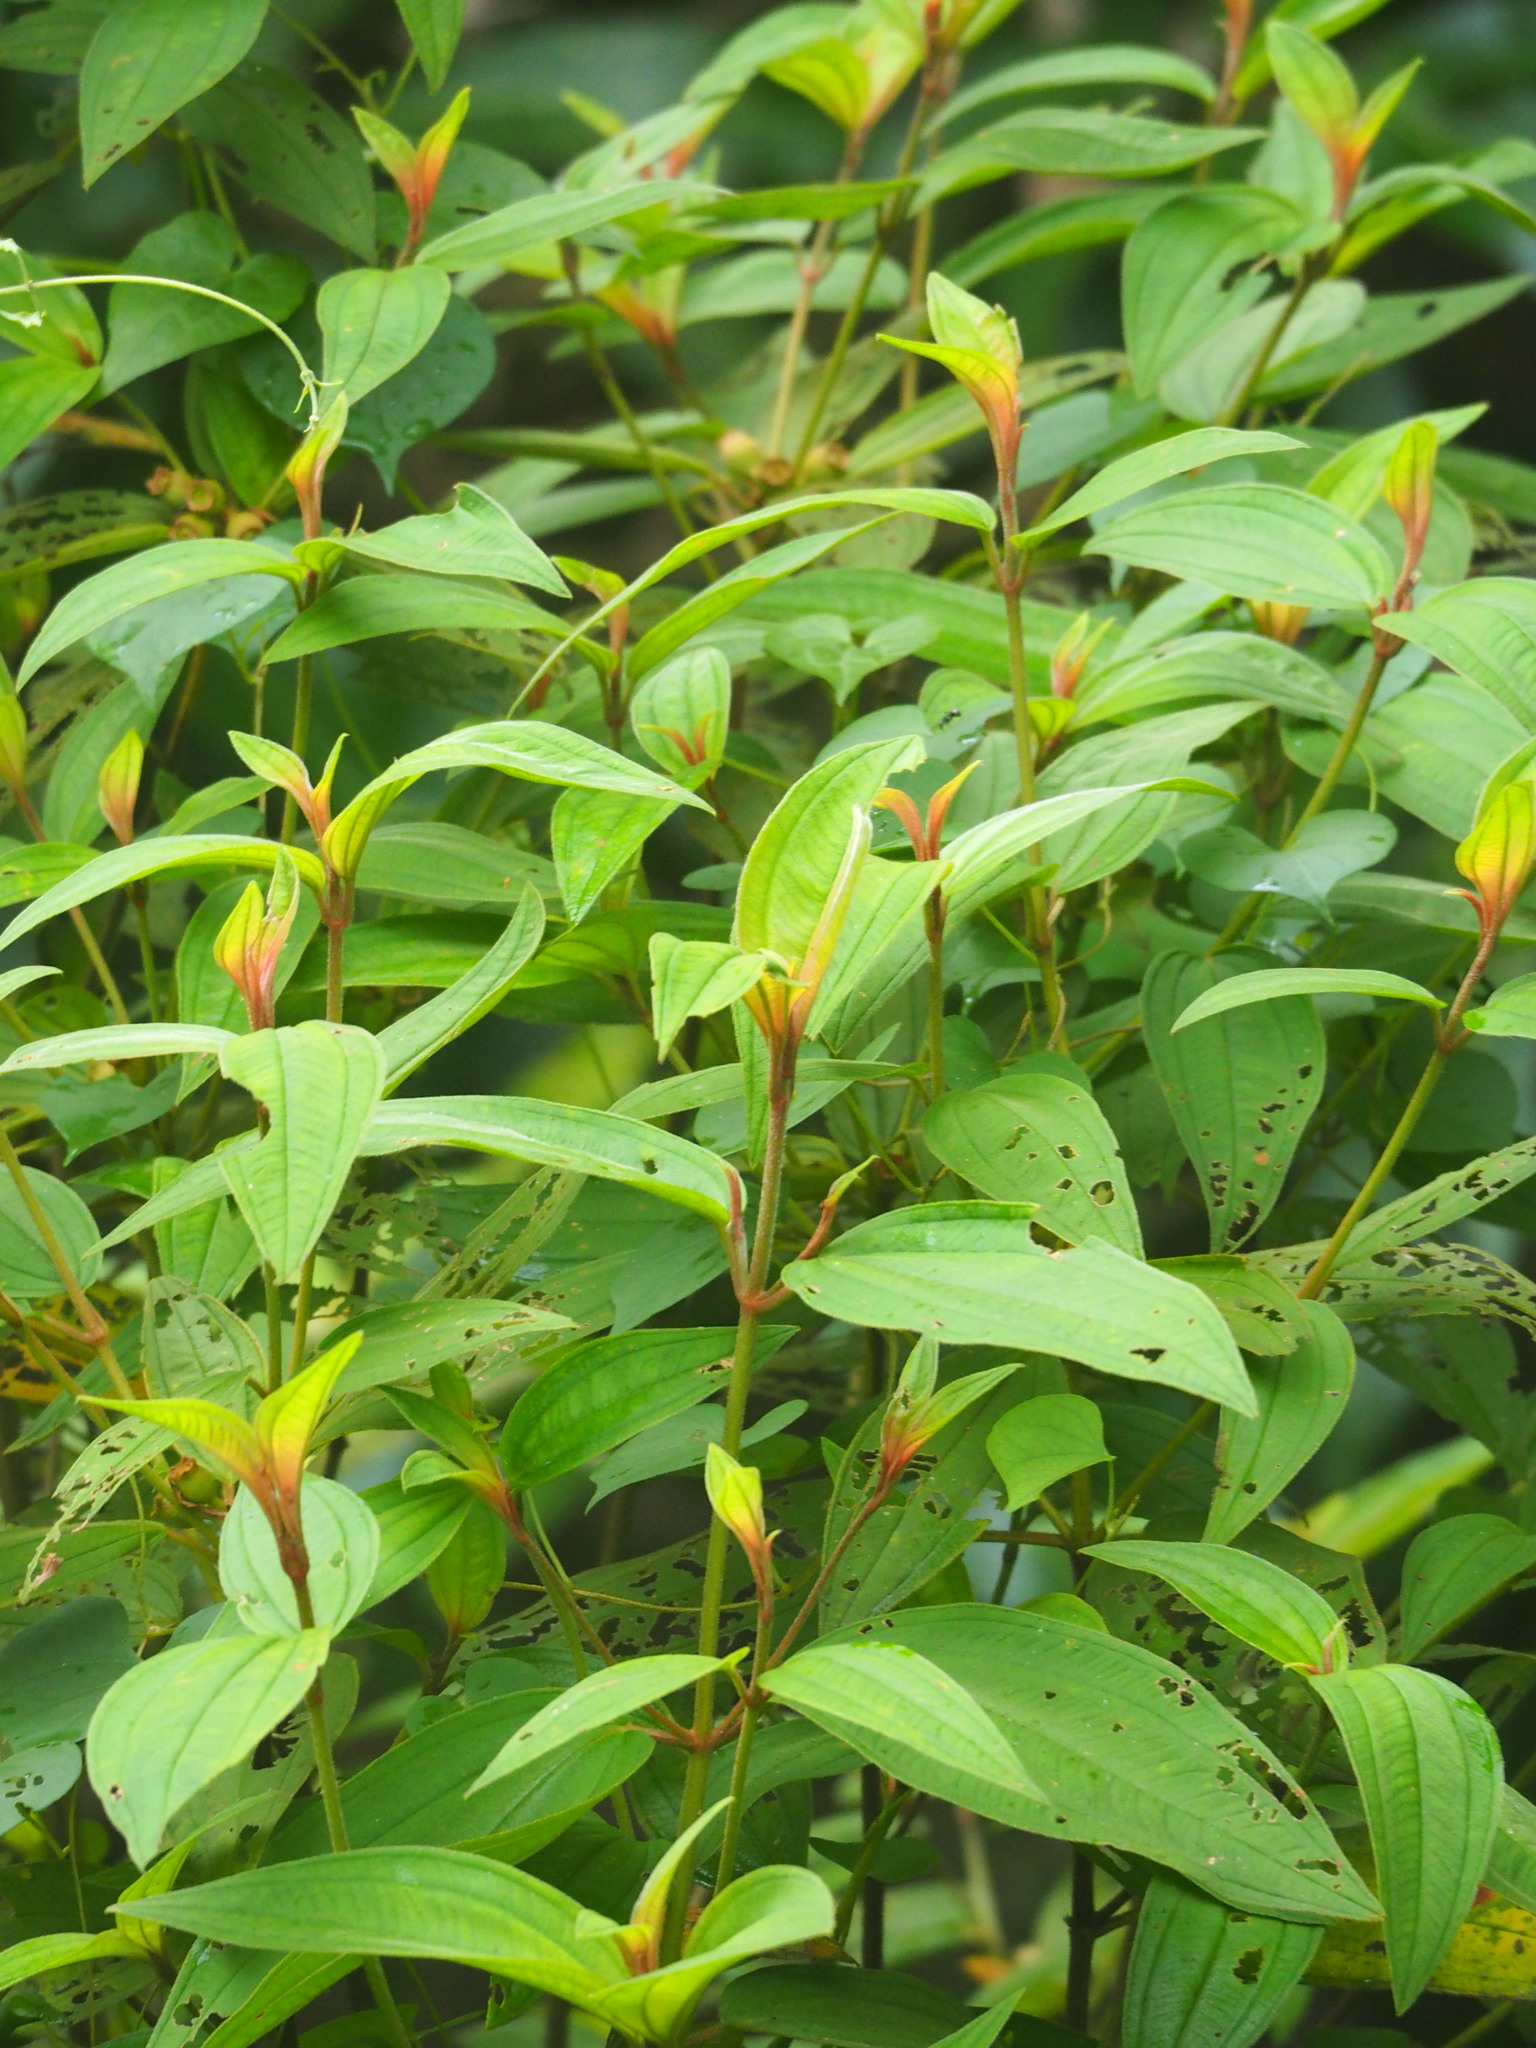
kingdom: Plantae
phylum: Tracheophyta
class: Magnoliopsida
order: Myrtales
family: Melastomataceae
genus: Melastoma
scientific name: Melastoma malabathricum
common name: Indian-rhododendron
